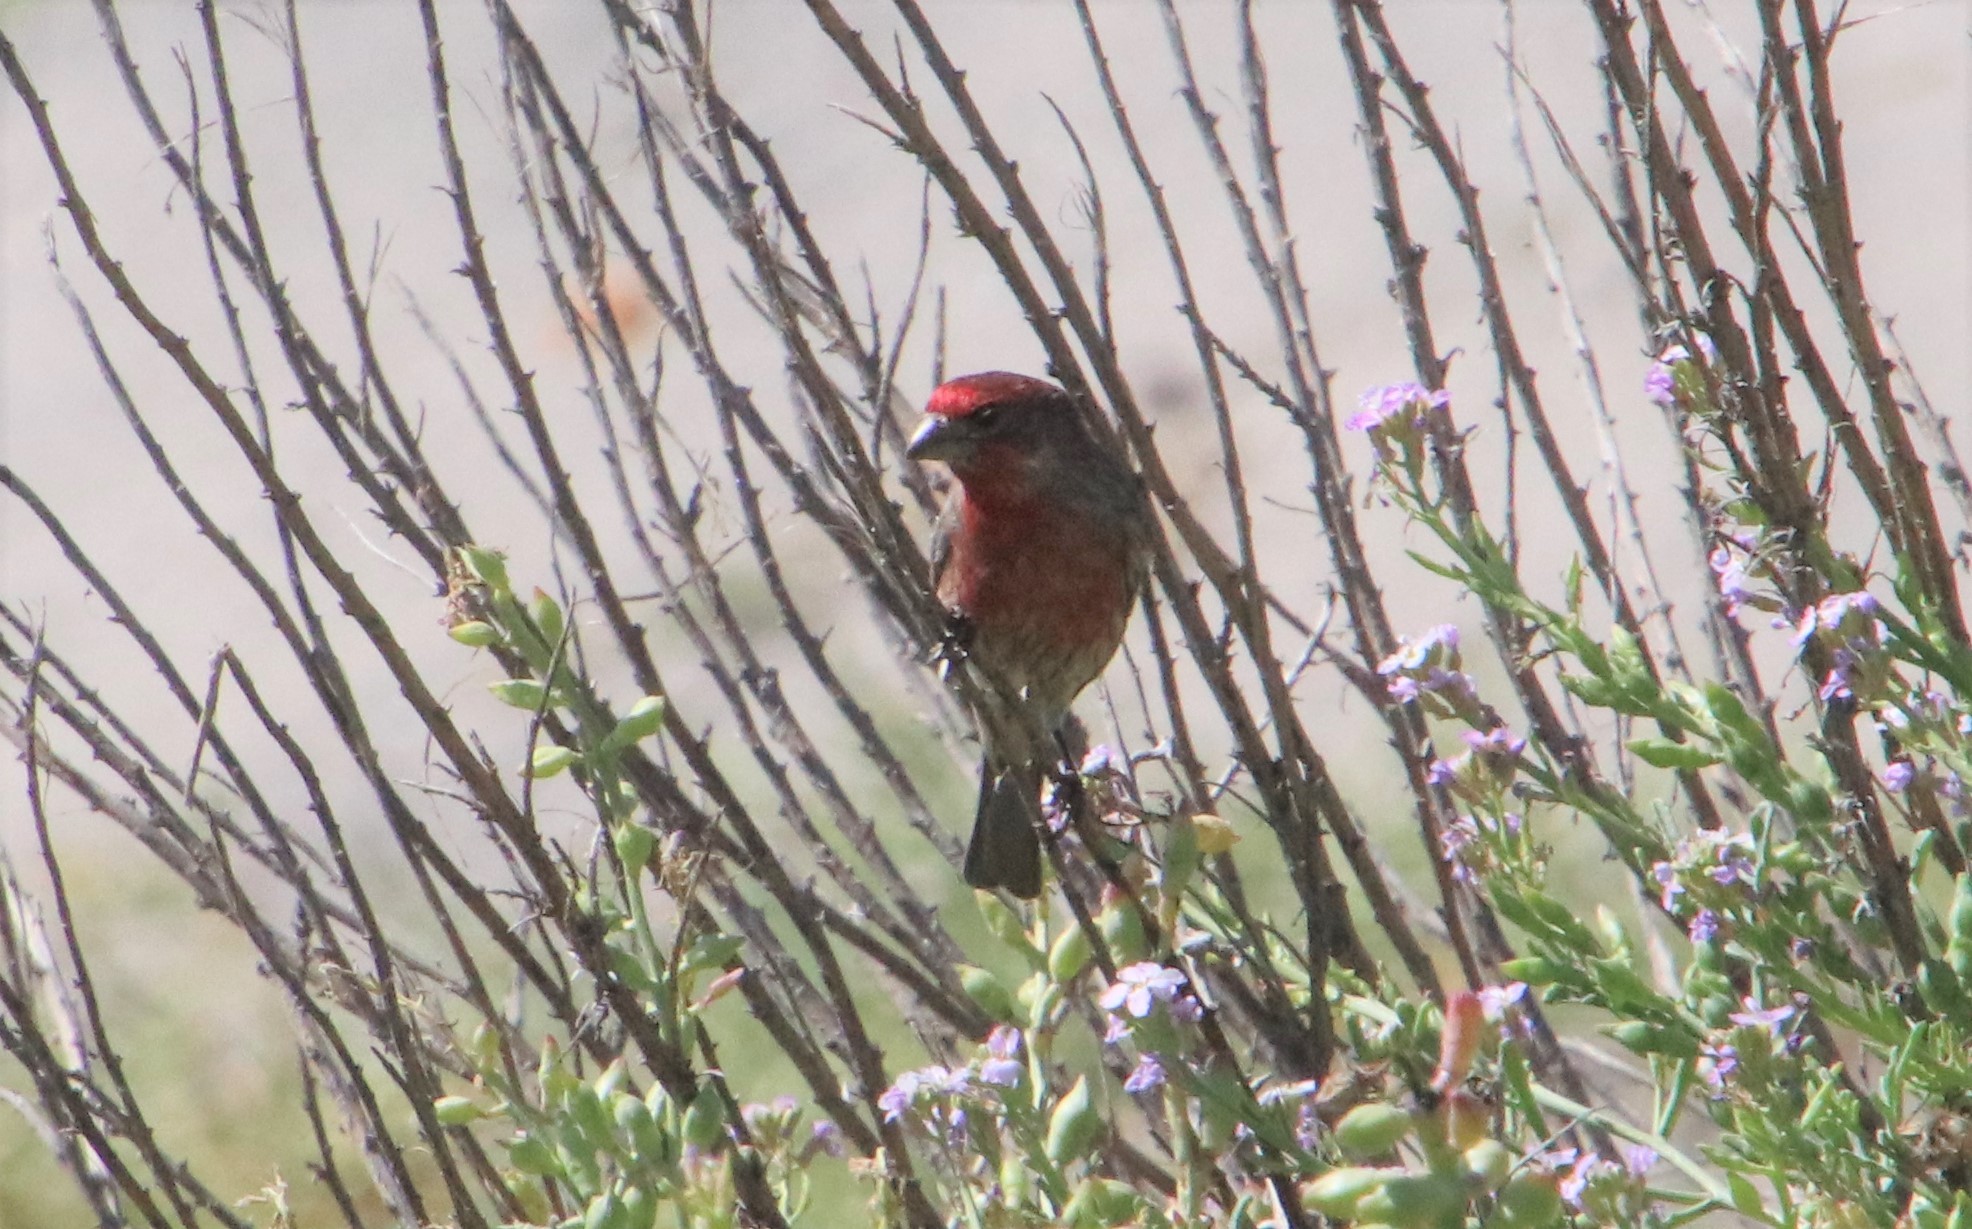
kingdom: Animalia
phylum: Chordata
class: Aves
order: Passeriformes
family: Fringillidae
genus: Haemorhous
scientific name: Haemorhous mexicanus
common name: House finch
